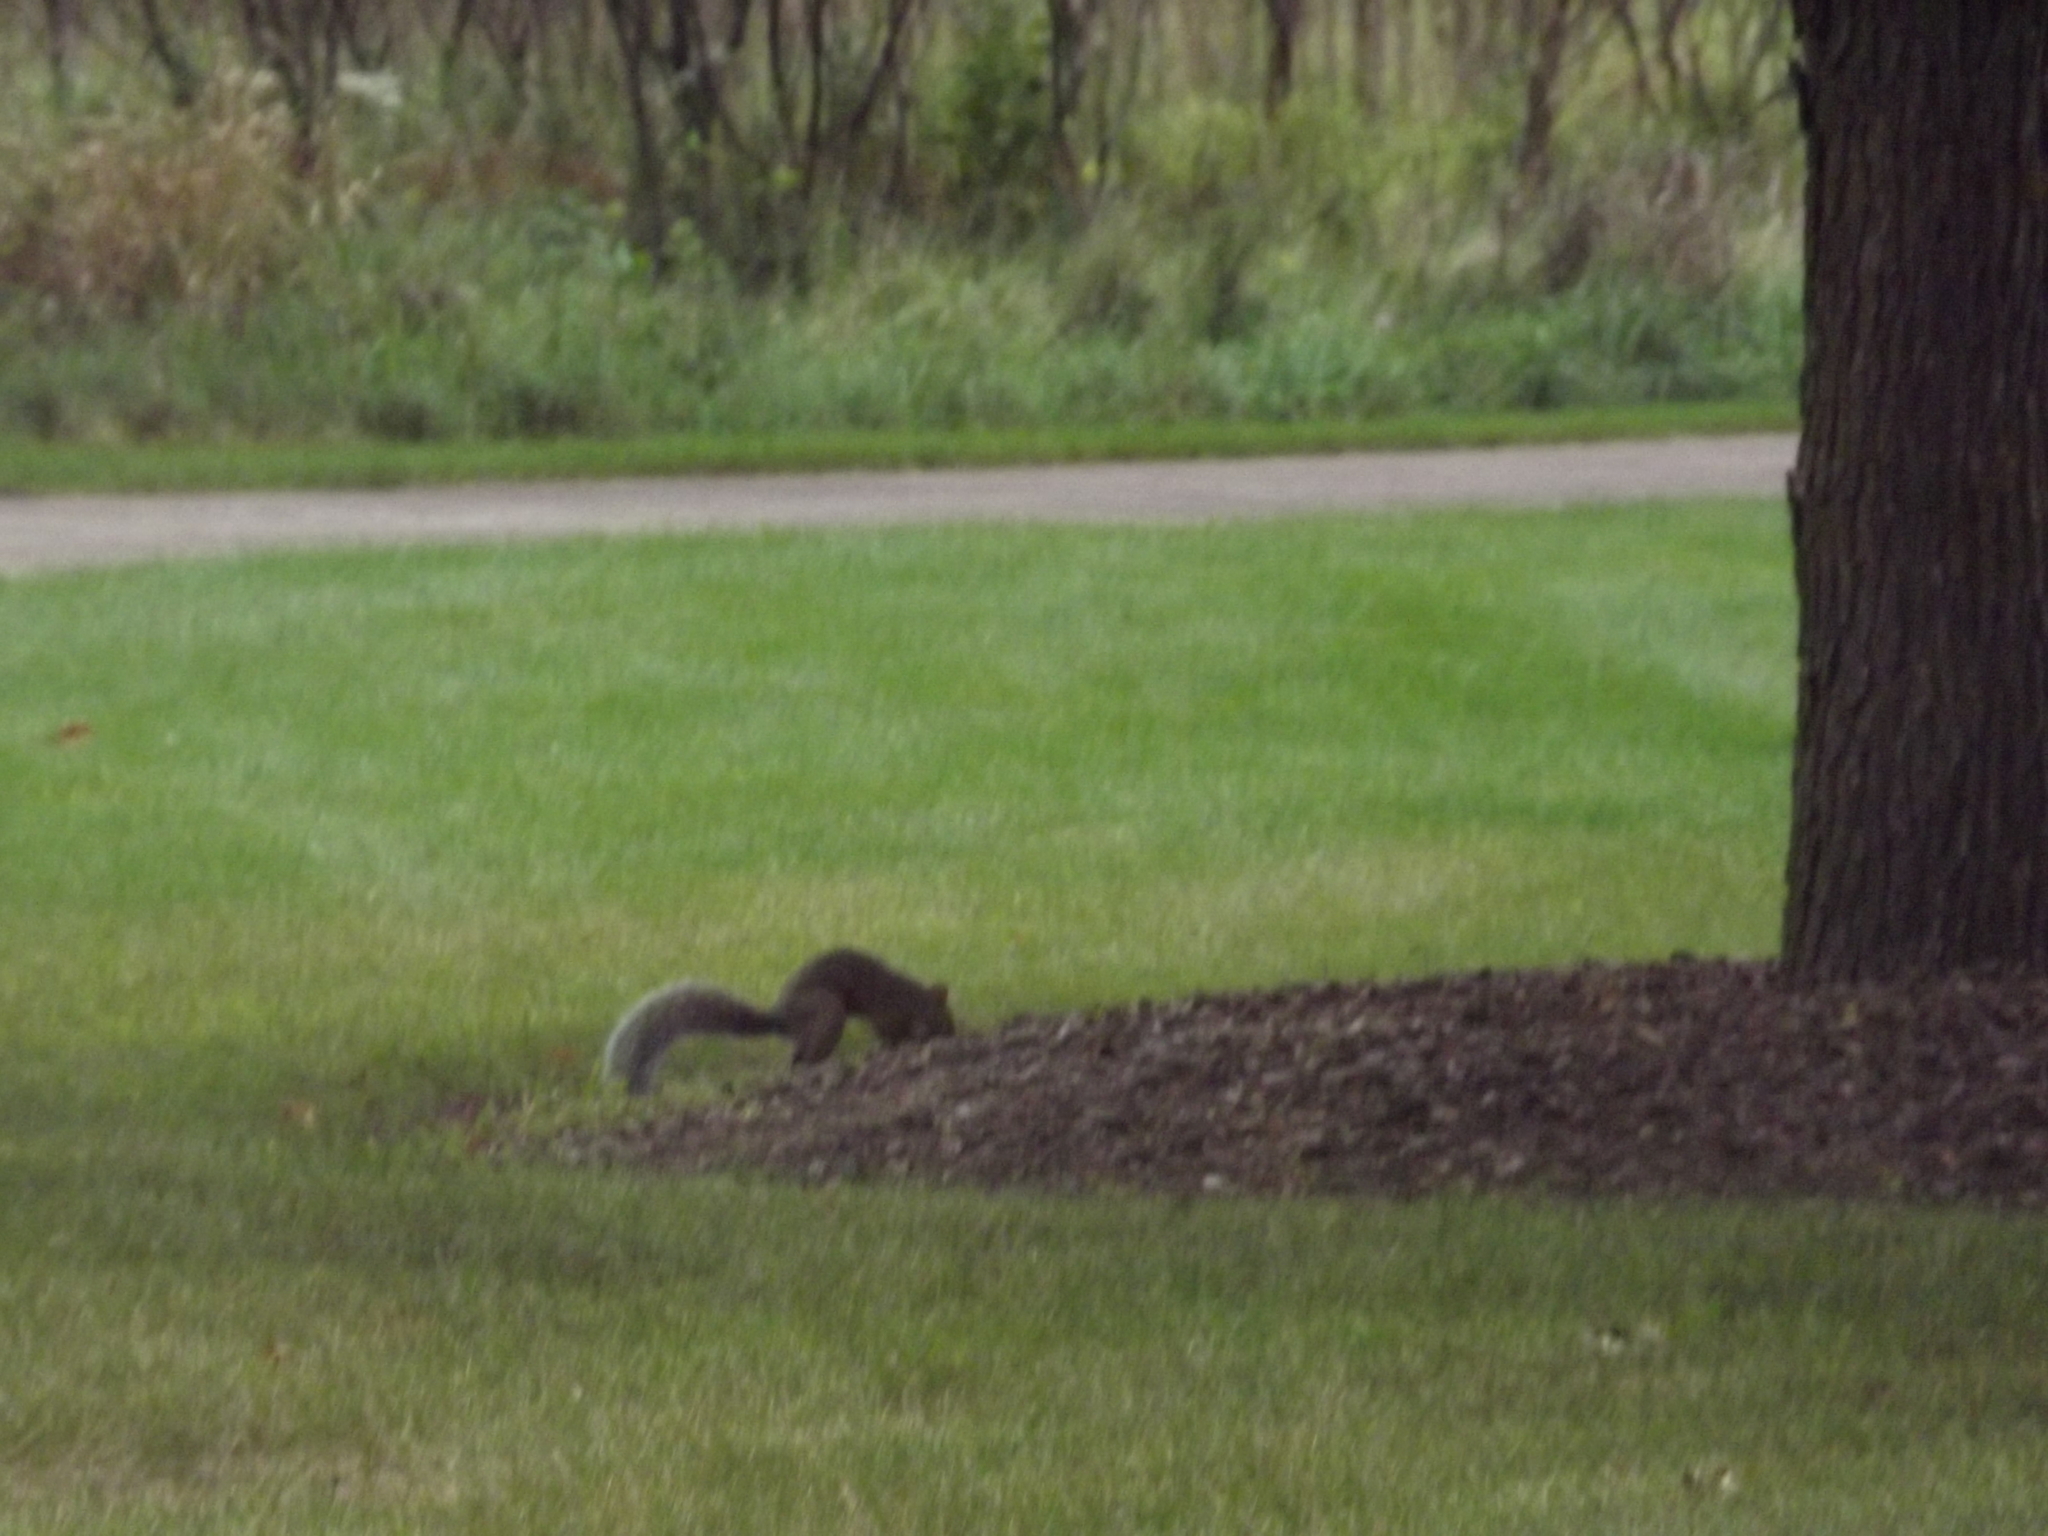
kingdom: Animalia
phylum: Chordata
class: Mammalia
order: Rodentia
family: Sciuridae
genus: Sciurus
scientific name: Sciurus carolinensis
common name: Eastern gray squirrel
